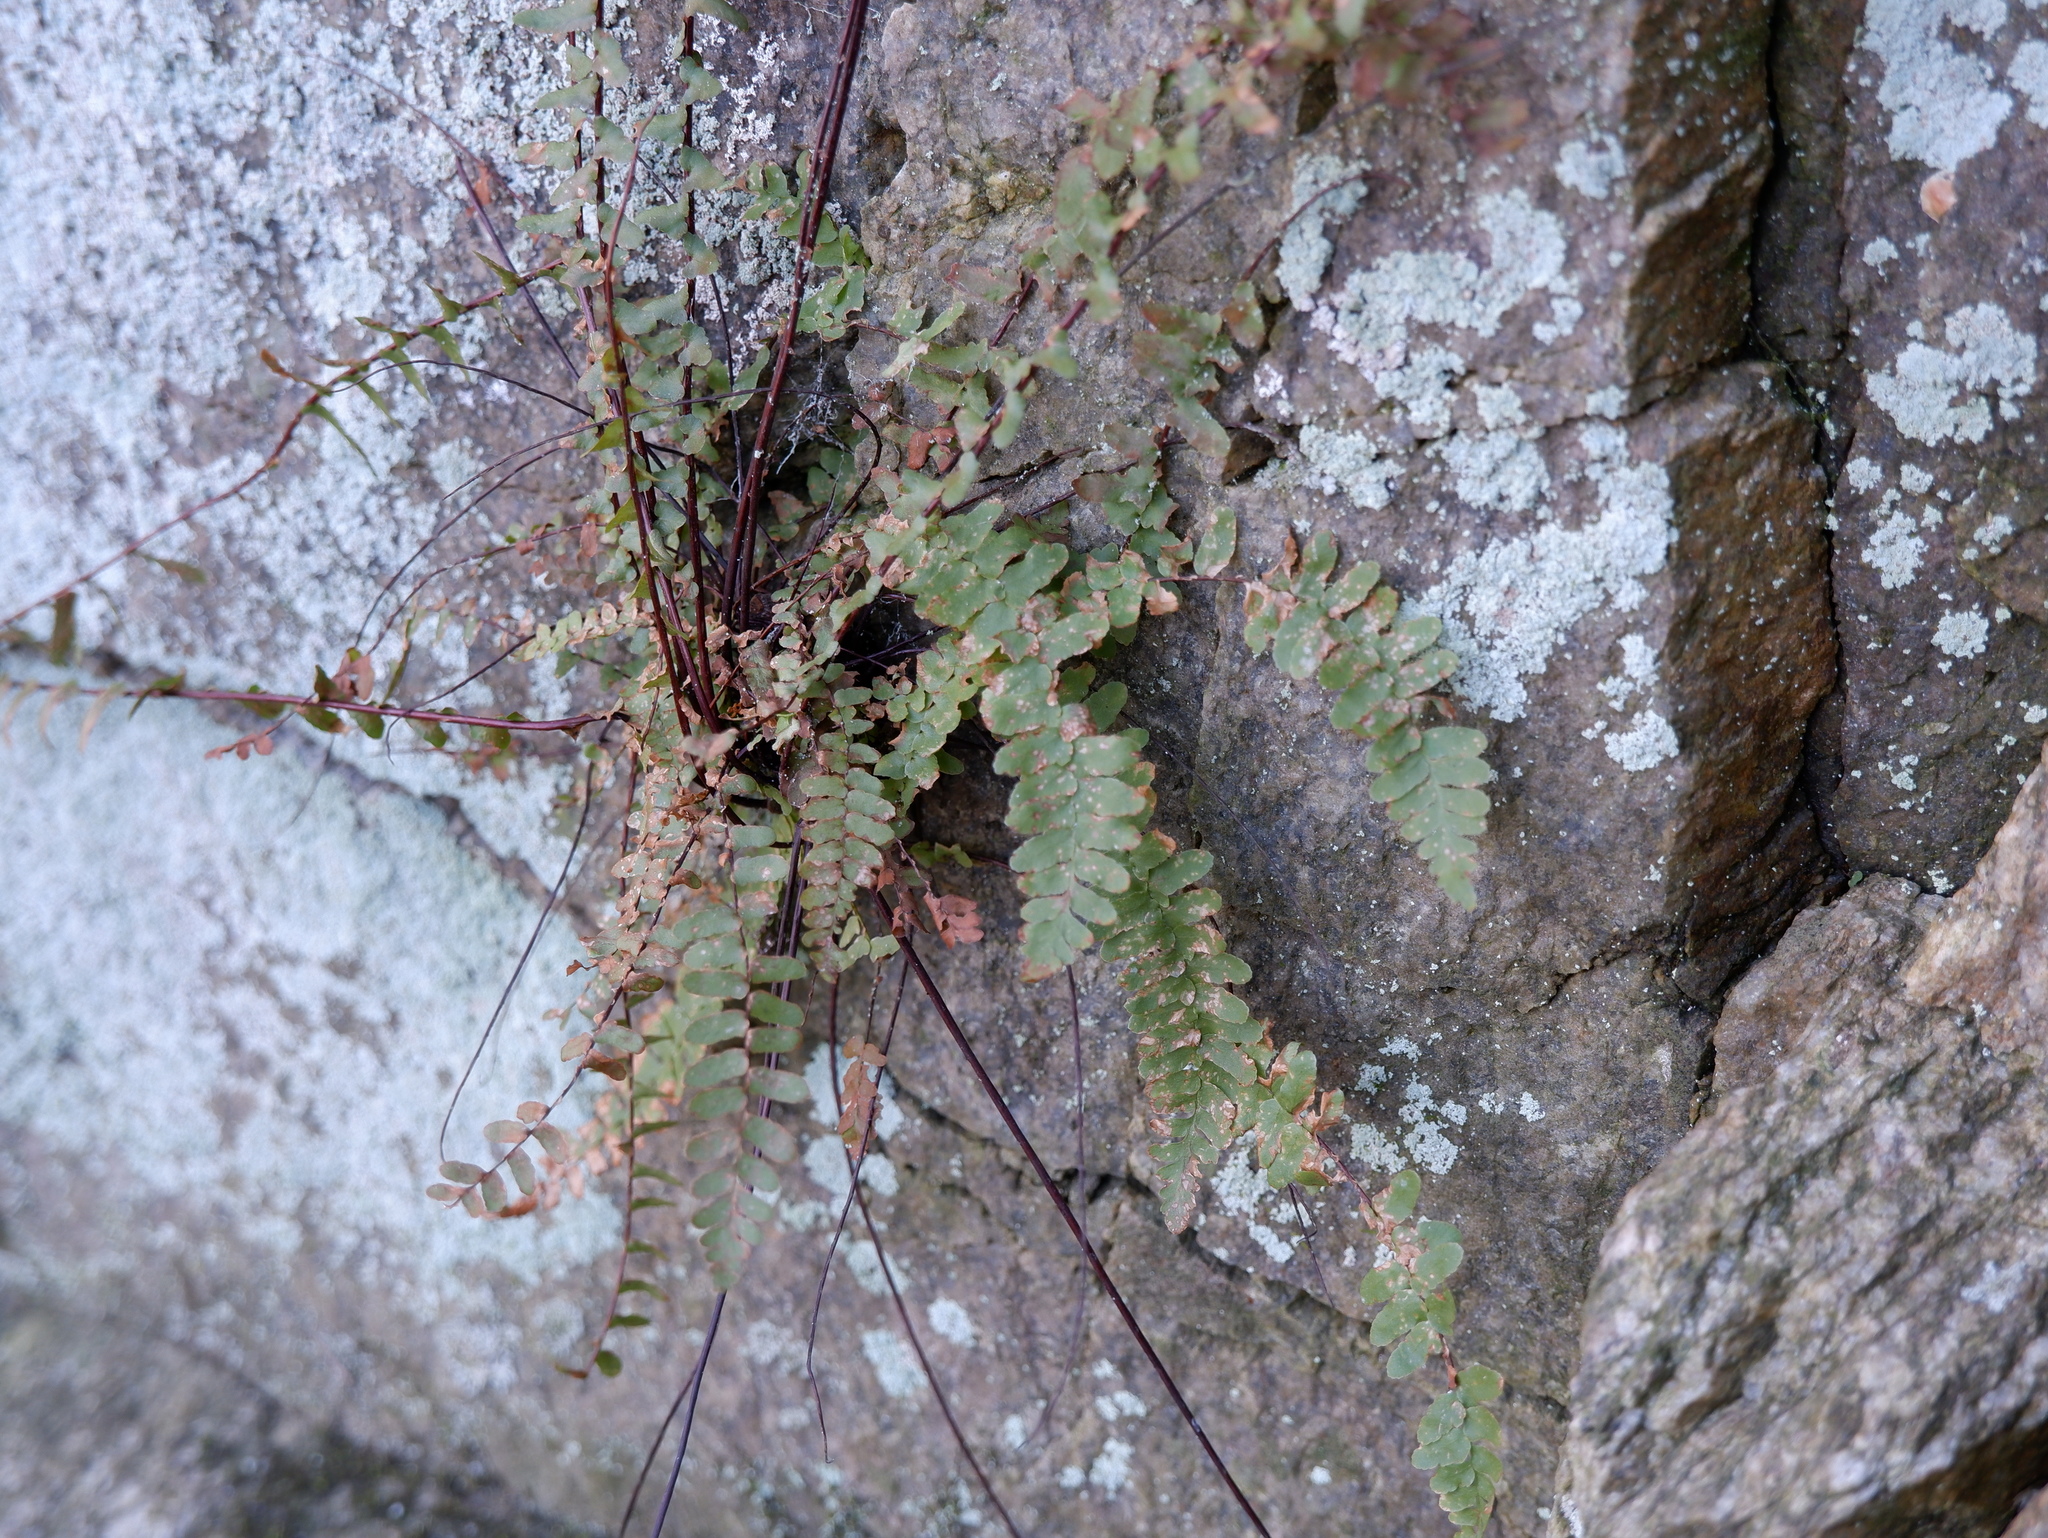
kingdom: Plantae
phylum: Tracheophyta
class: Polypodiopsida
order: Polypodiales
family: Aspleniaceae
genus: Asplenium
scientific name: Asplenium platyneuron
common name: Ebony spleenwort
